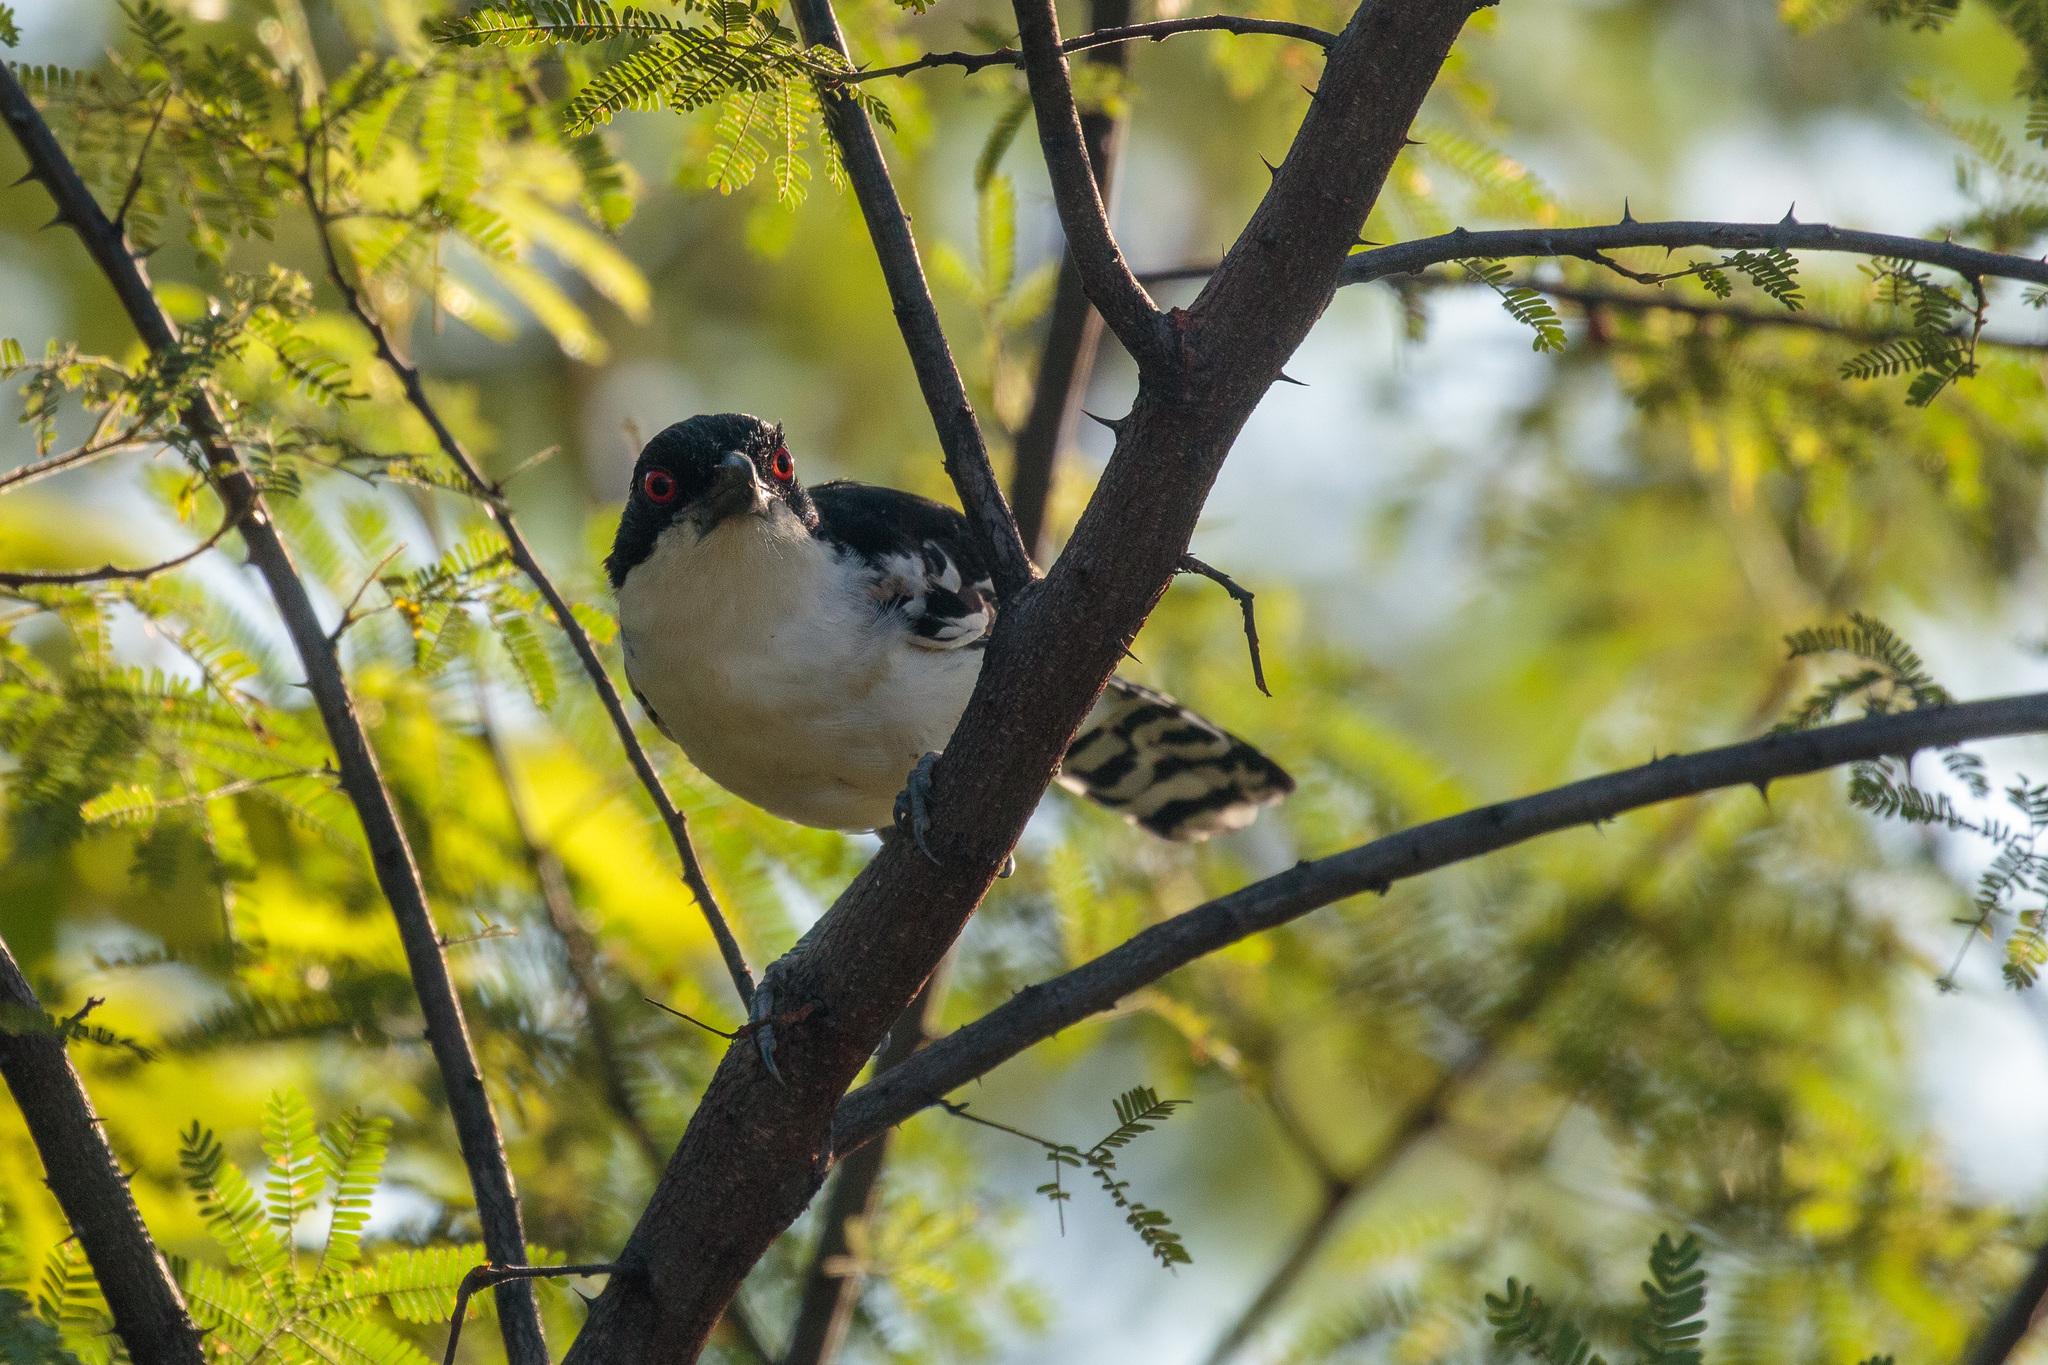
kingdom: Animalia
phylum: Chordata
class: Aves
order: Passeriformes
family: Thamnophilidae
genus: Taraba
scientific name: Taraba major
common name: Great antshrike
